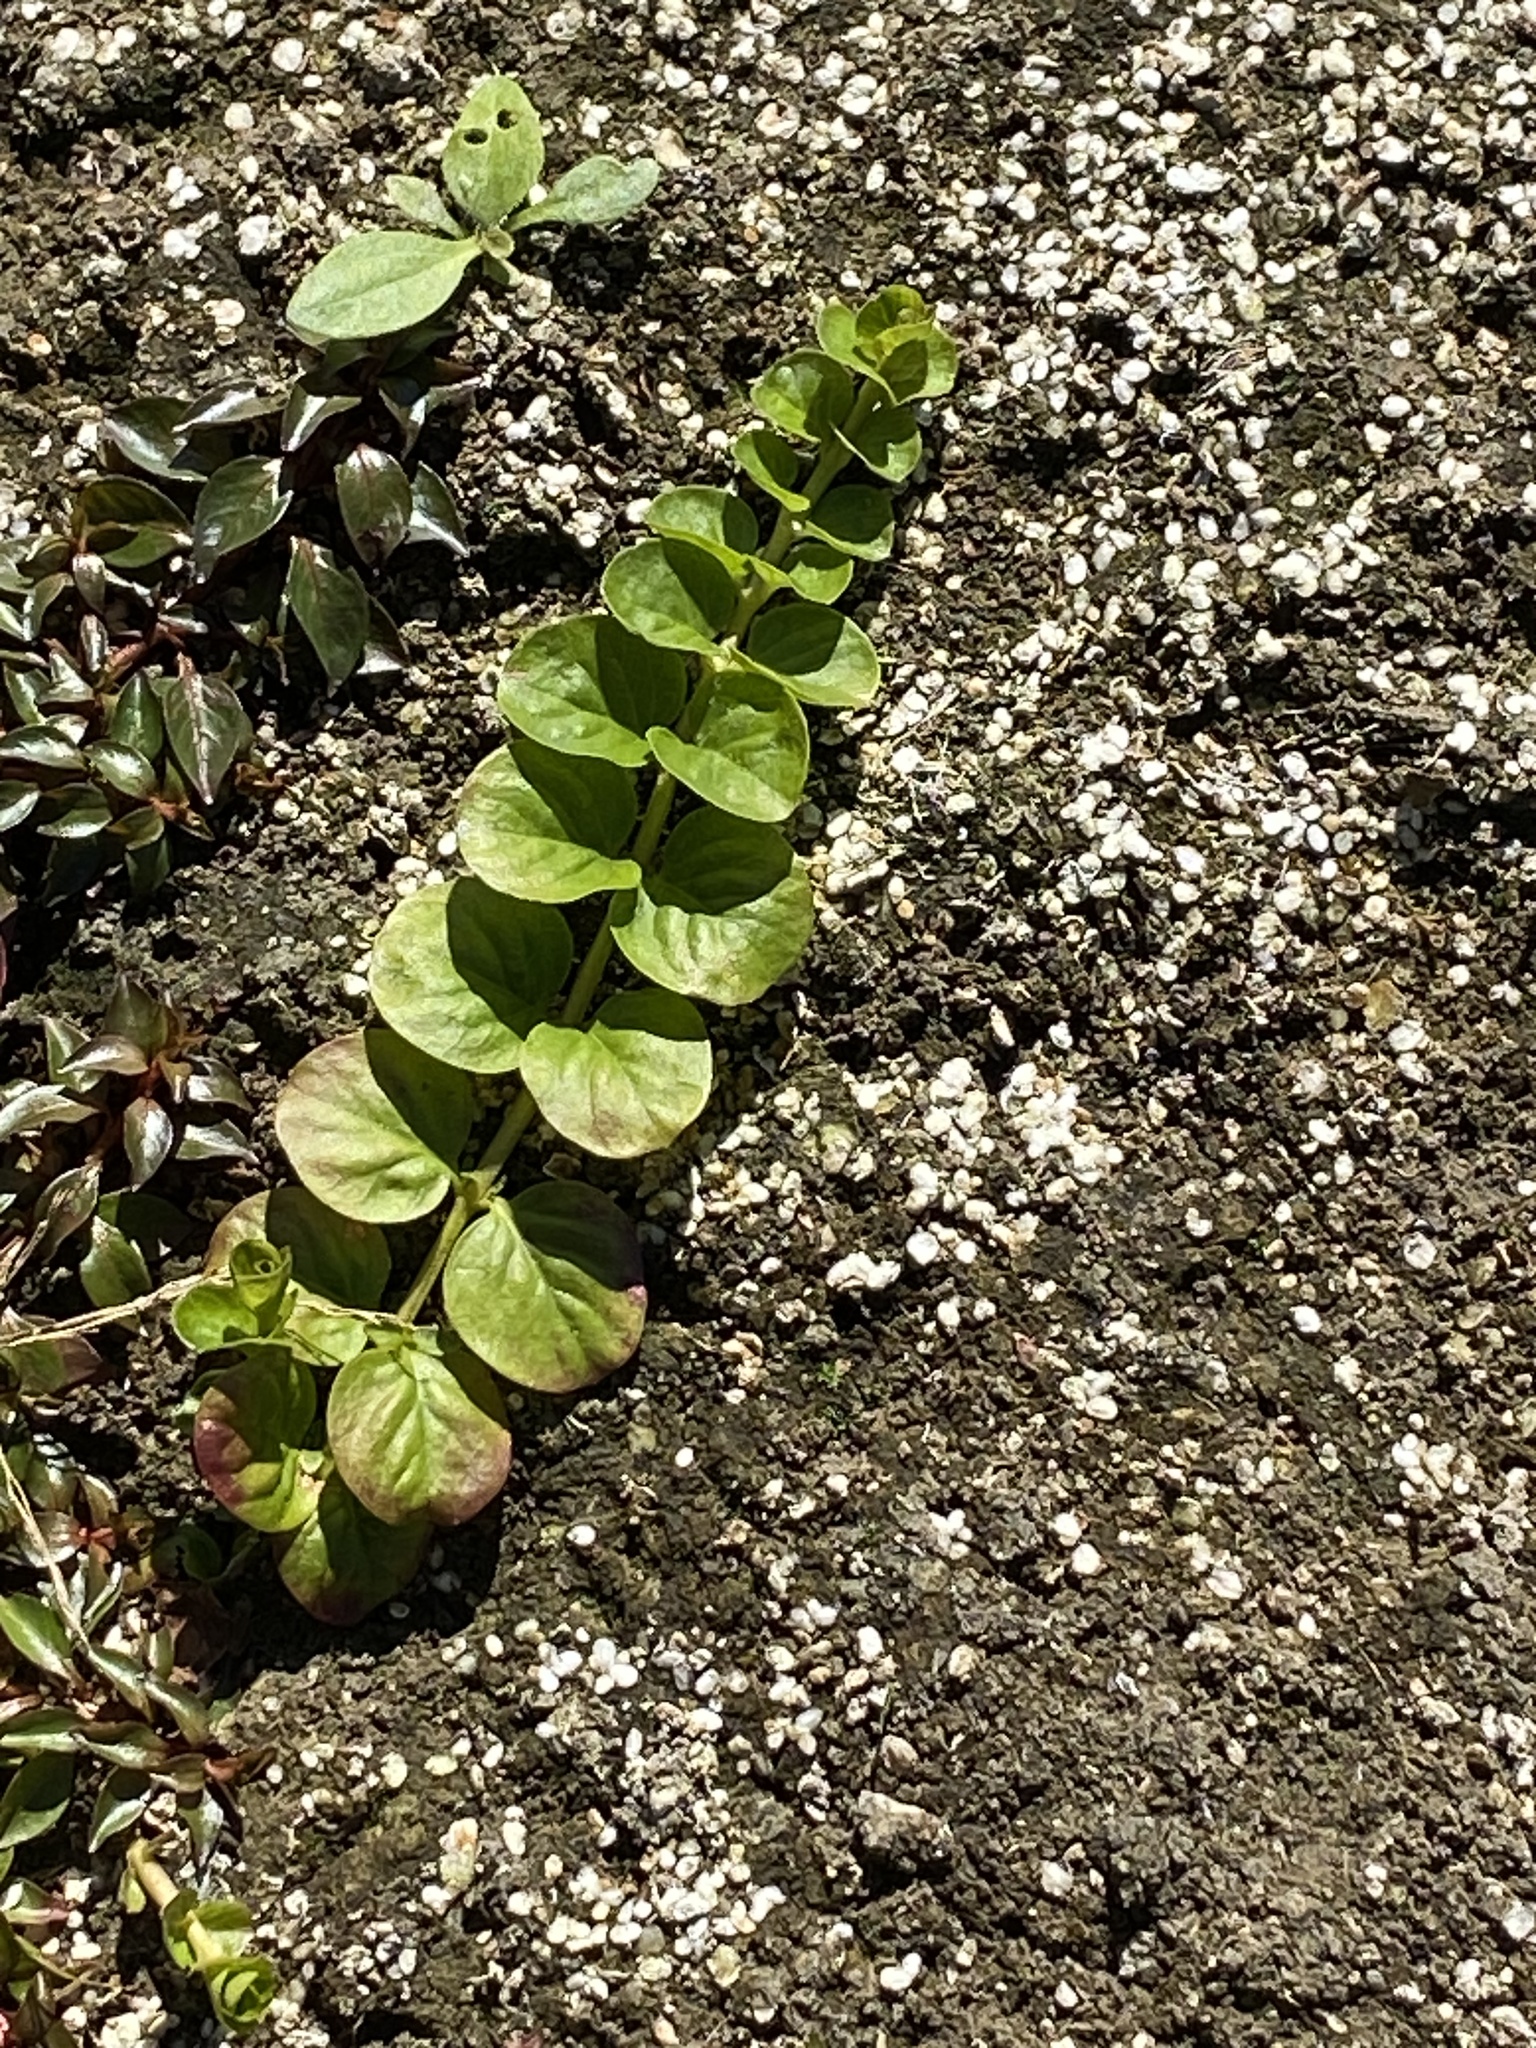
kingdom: Plantae
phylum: Tracheophyta
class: Magnoliopsida
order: Ericales
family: Primulaceae
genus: Lysimachia
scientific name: Lysimachia nummularia
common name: Moneywort
